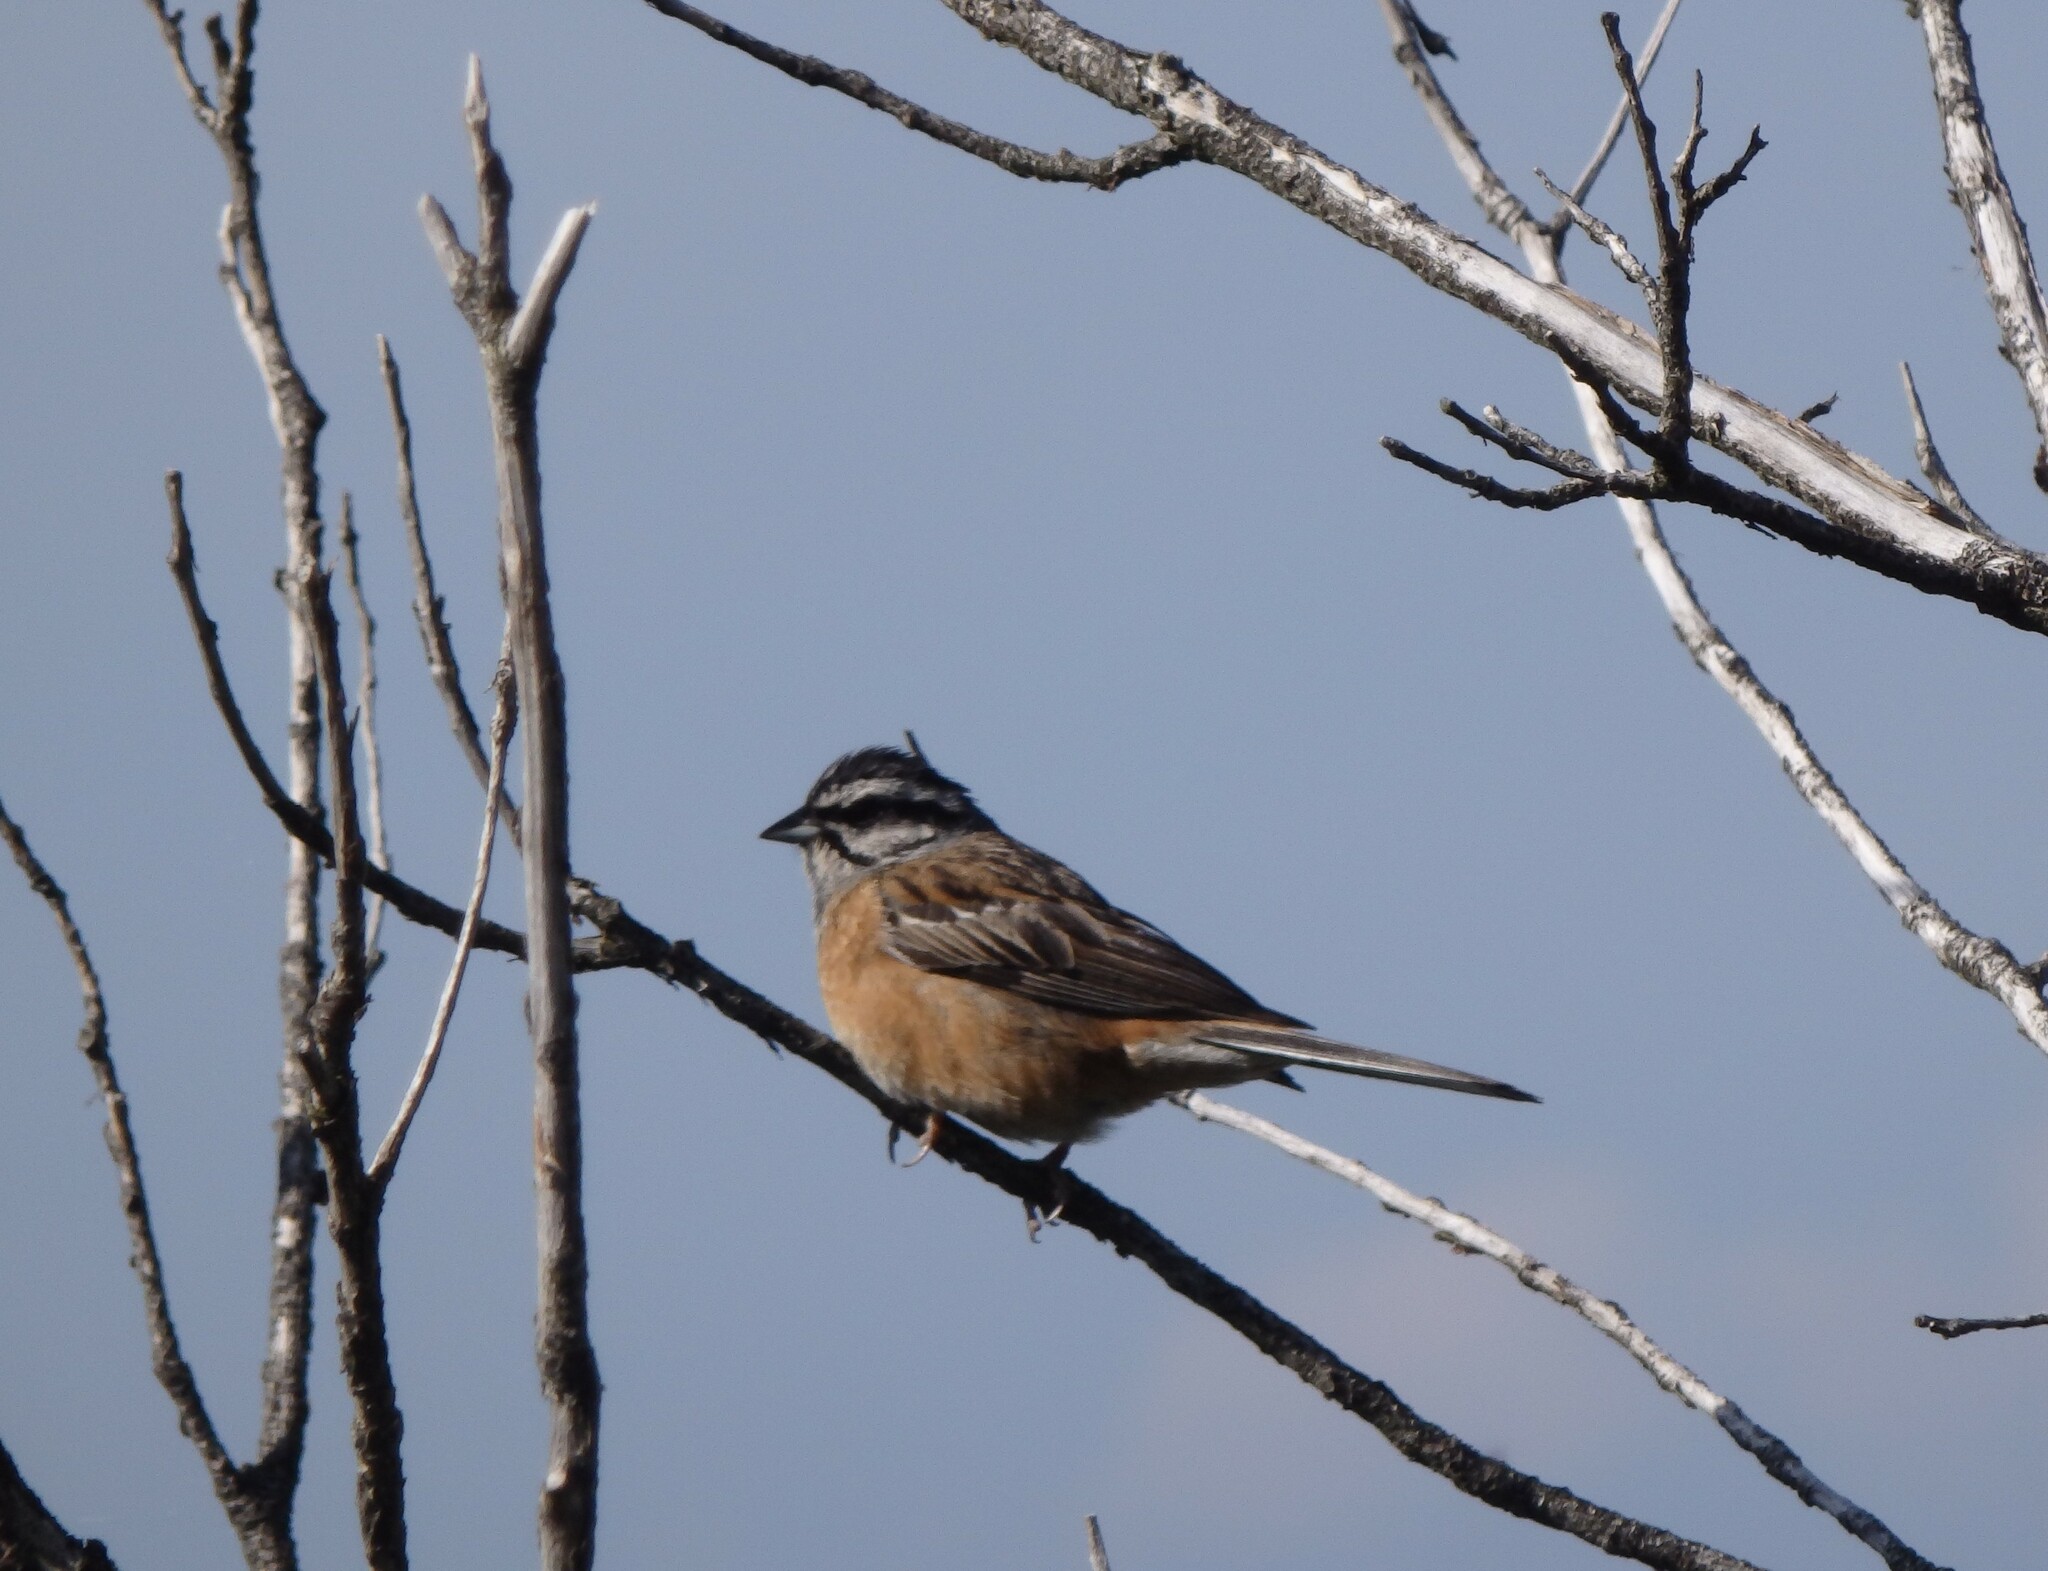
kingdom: Animalia
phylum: Chordata
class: Aves
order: Passeriformes
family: Emberizidae
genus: Emberiza
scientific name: Emberiza cia
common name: Rock bunting
